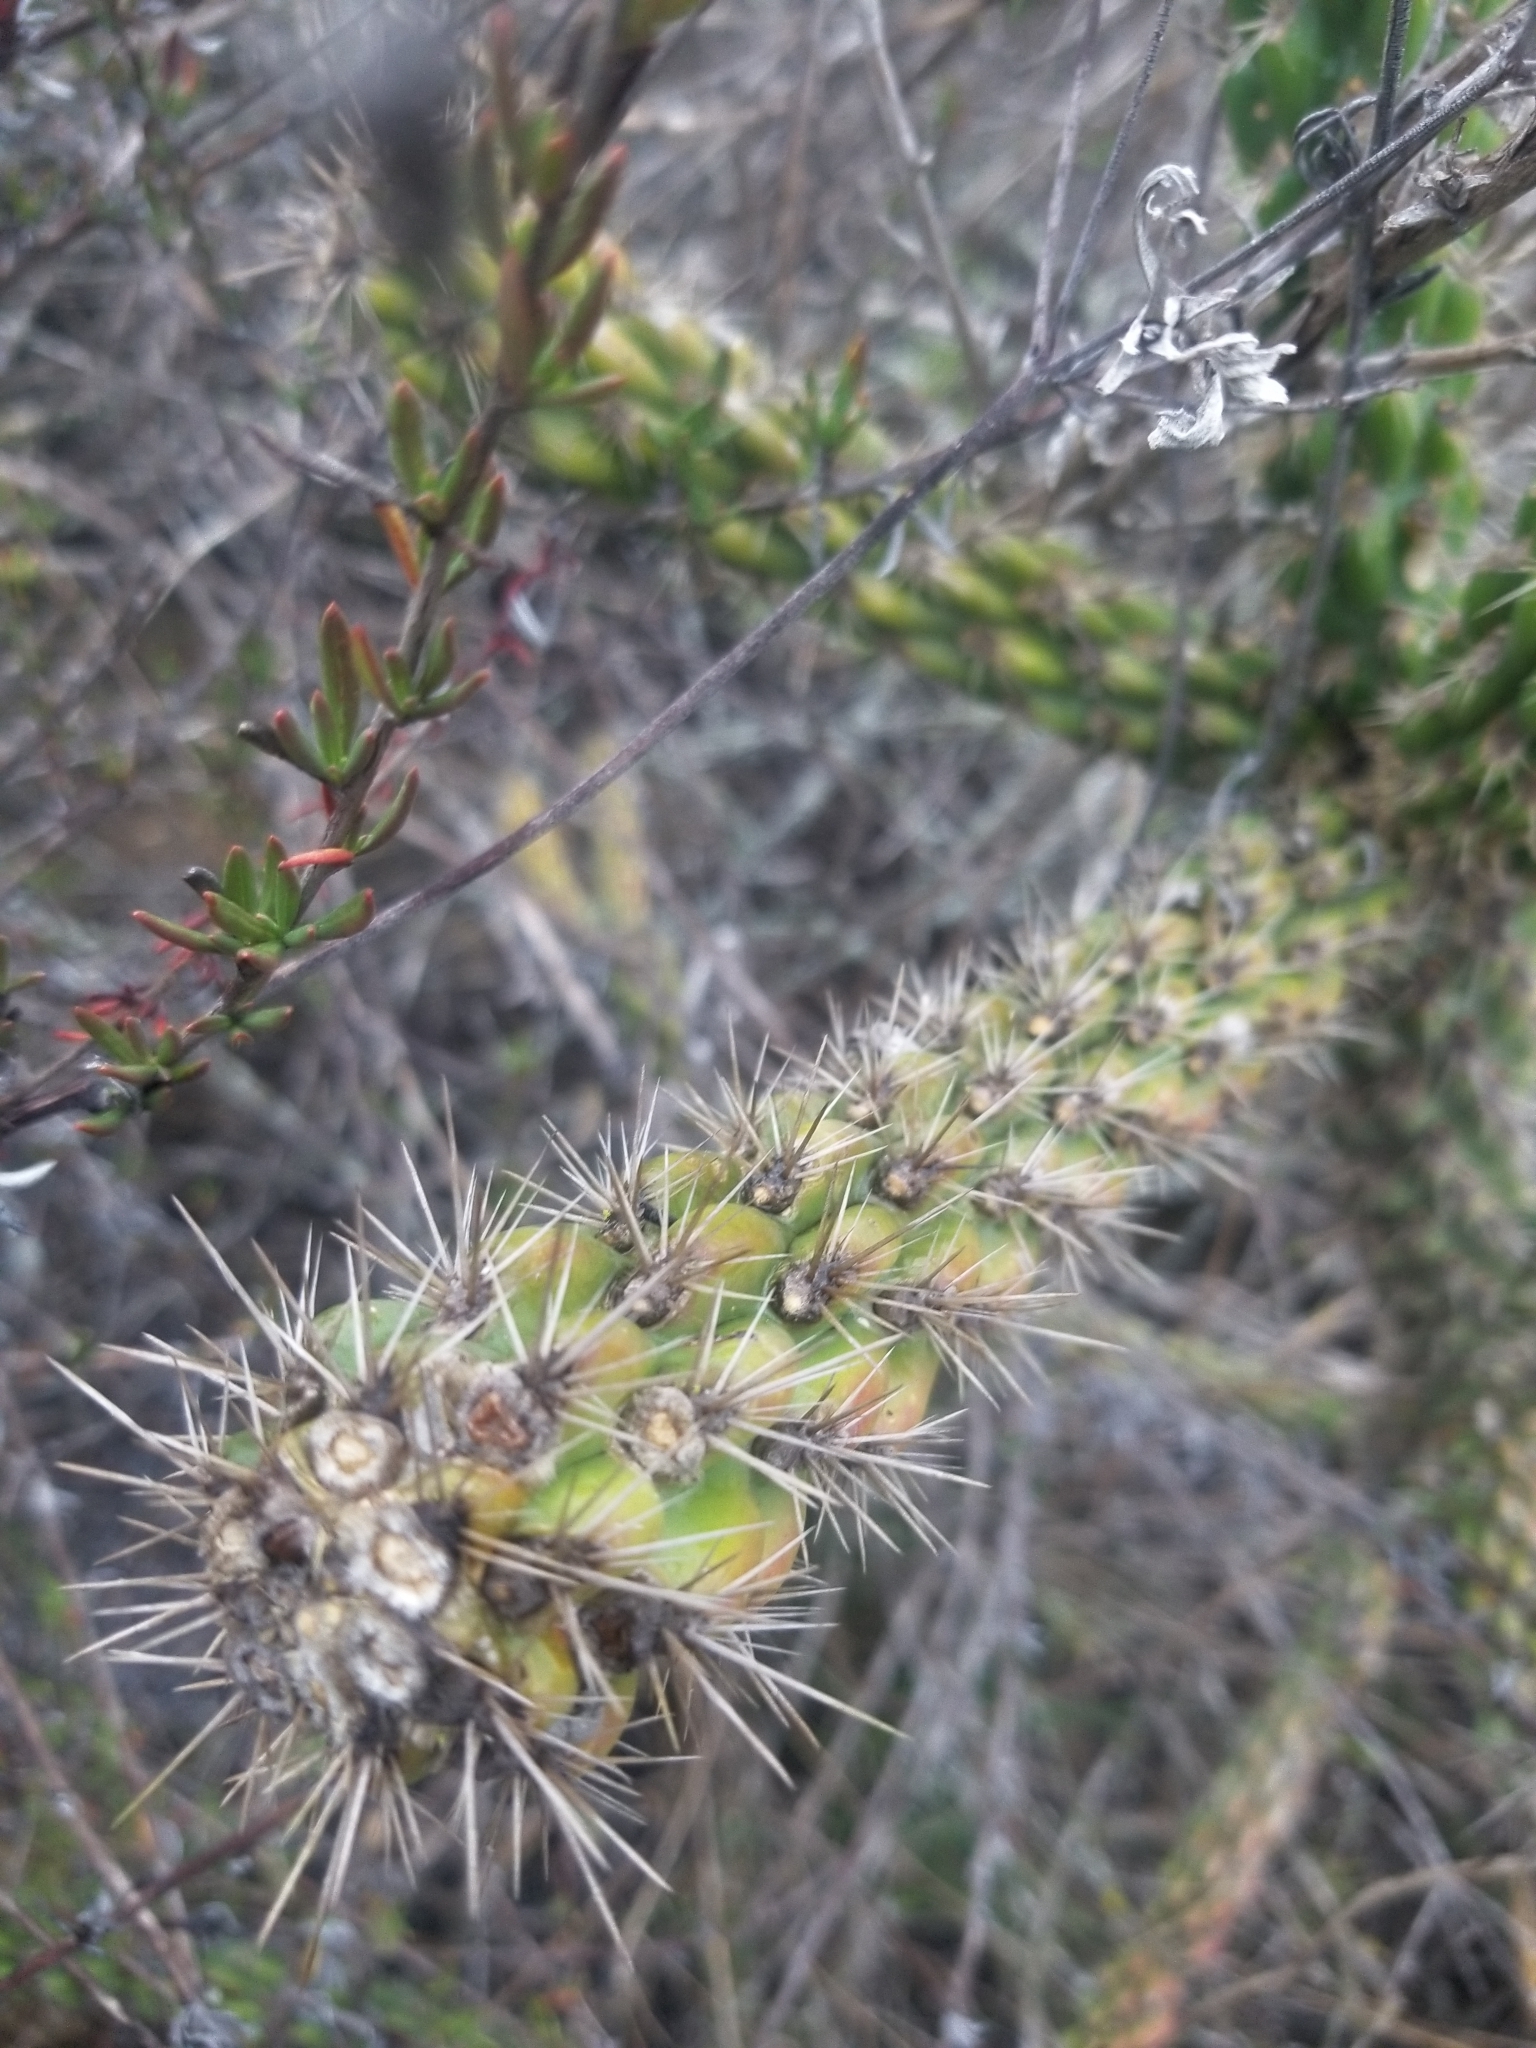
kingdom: Plantae
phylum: Tracheophyta
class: Magnoliopsida
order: Caryophyllales
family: Cactaceae
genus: Cylindropuntia
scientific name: Cylindropuntia californica
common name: Snake cholla
